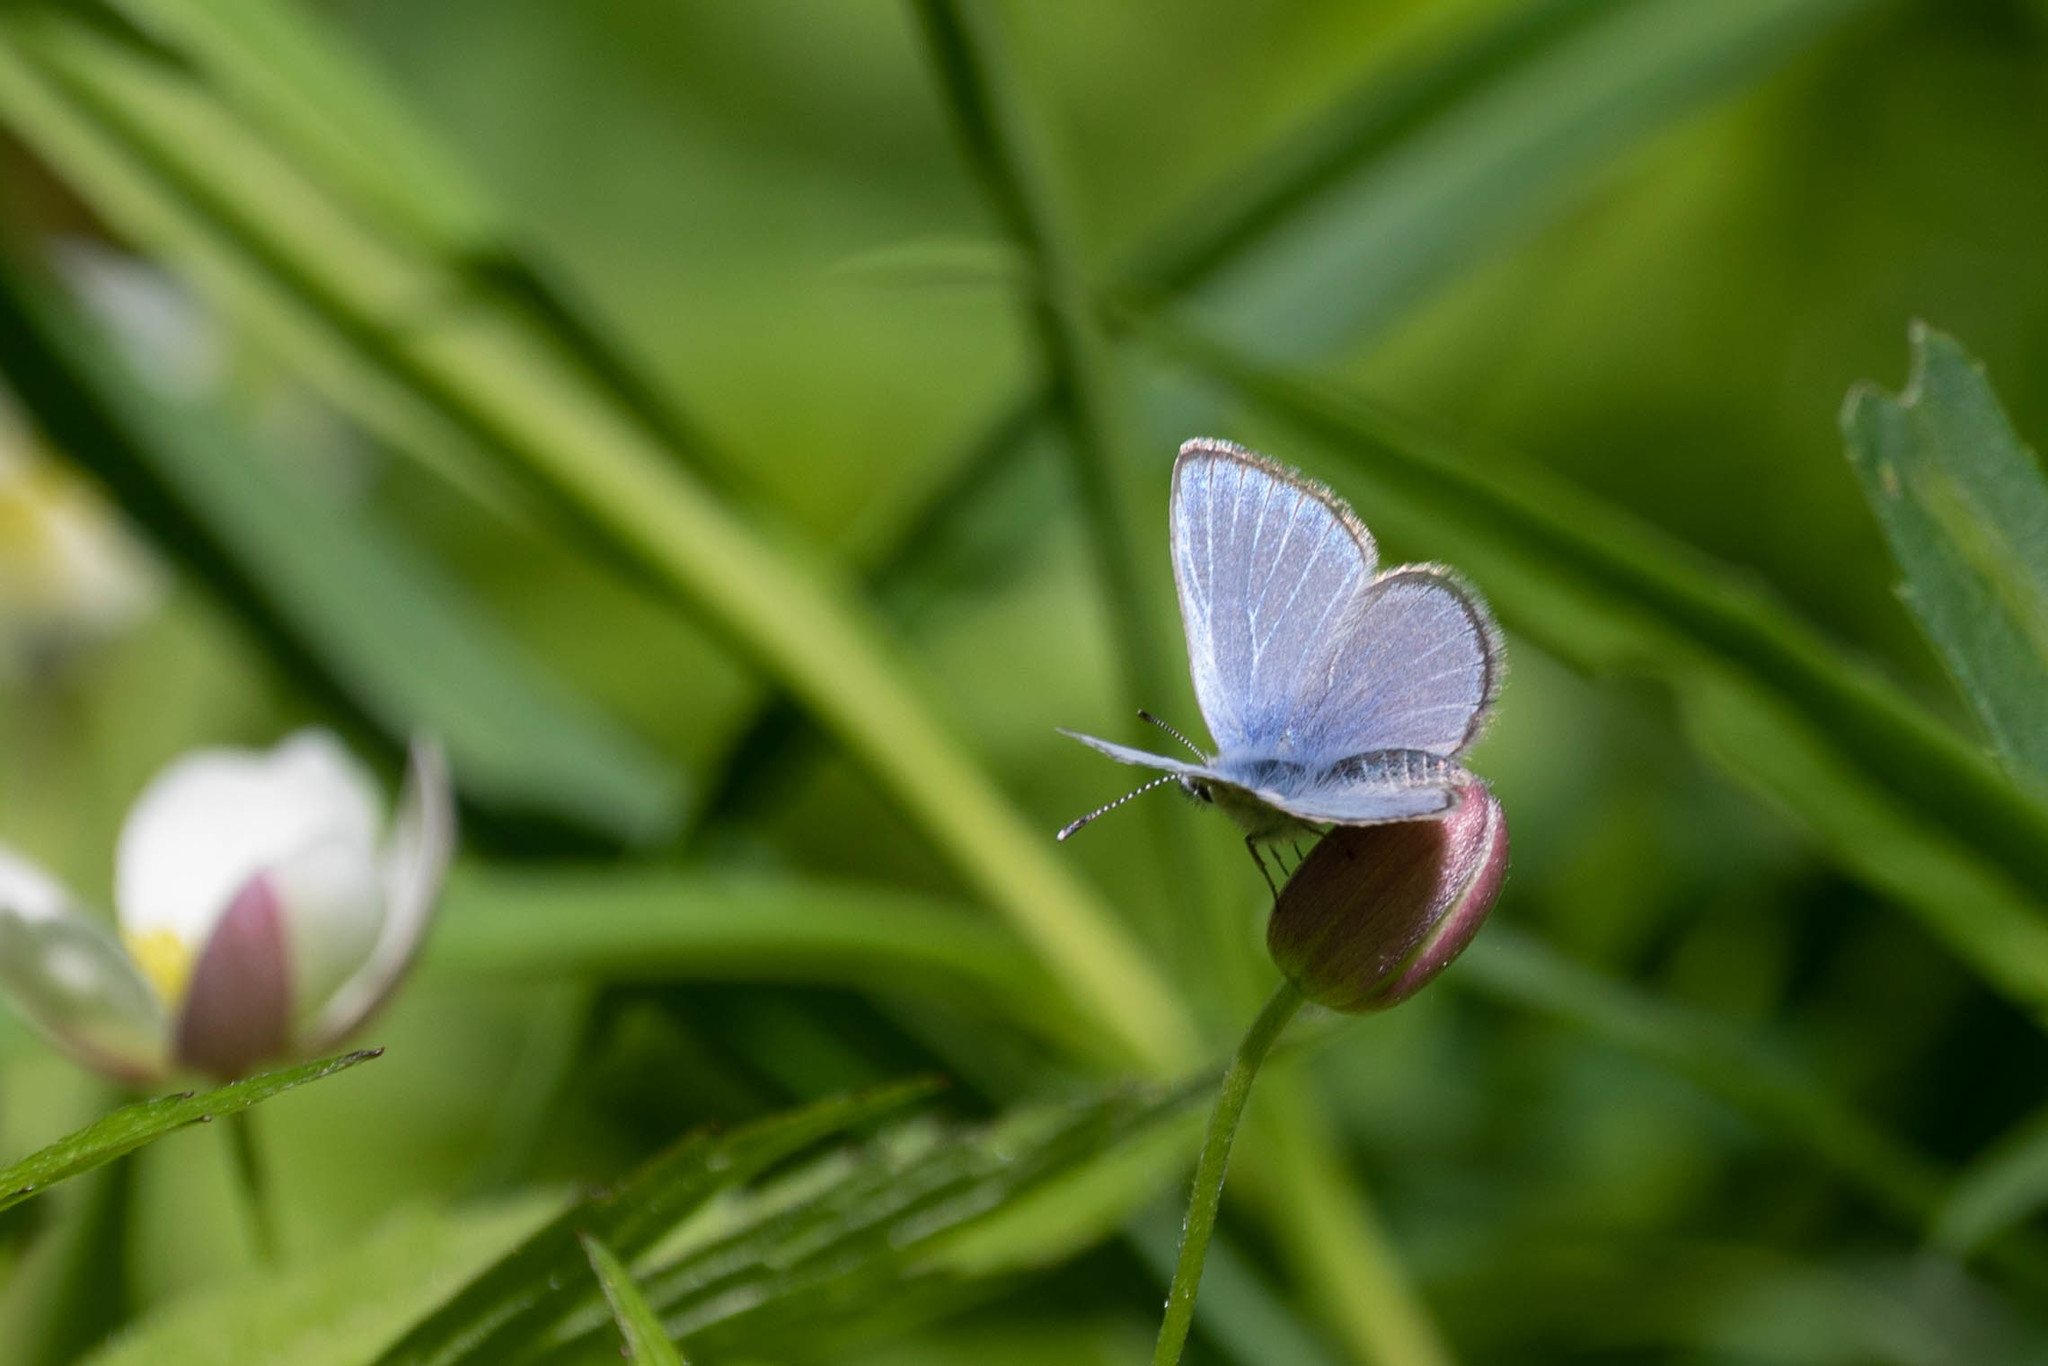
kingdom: Animalia
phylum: Arthropoda
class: Insecta
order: Lepidoptera
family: Lycaenidae
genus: Glaucopsyche
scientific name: Glaucopsyche lygdamus
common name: Silvery blue
